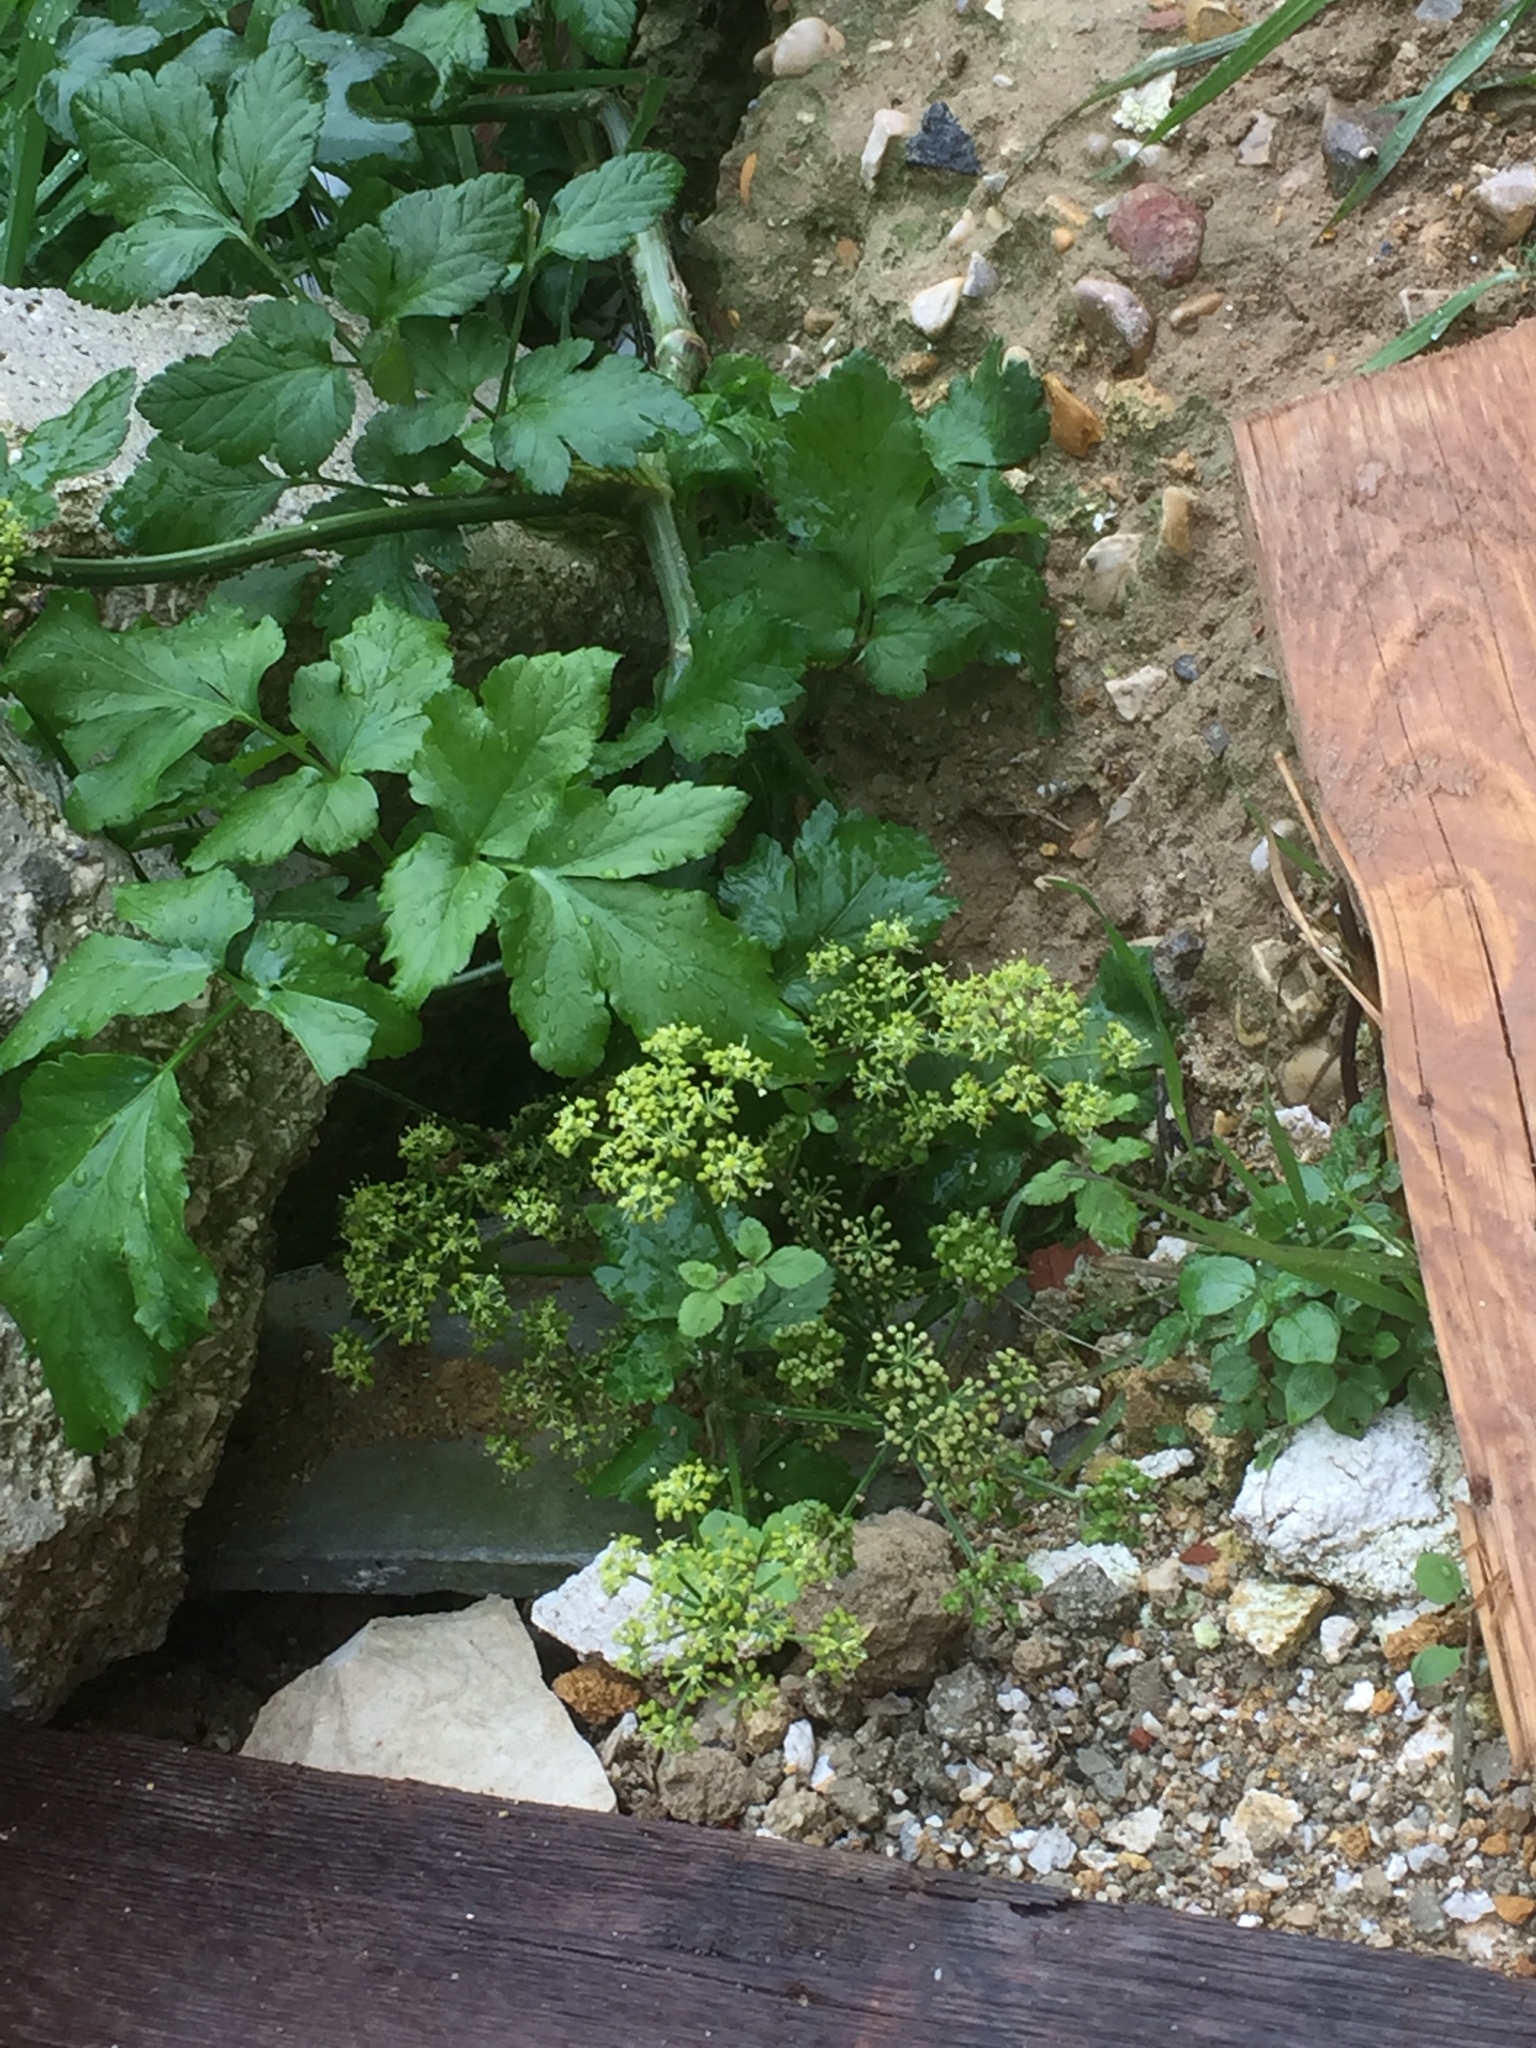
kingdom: Plantae
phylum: Tracheophyta
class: Magnoliopsida
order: Apiales
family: Apiaceae
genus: Smyrnium
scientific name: Smyrnium olusatrum
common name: Alexanders
